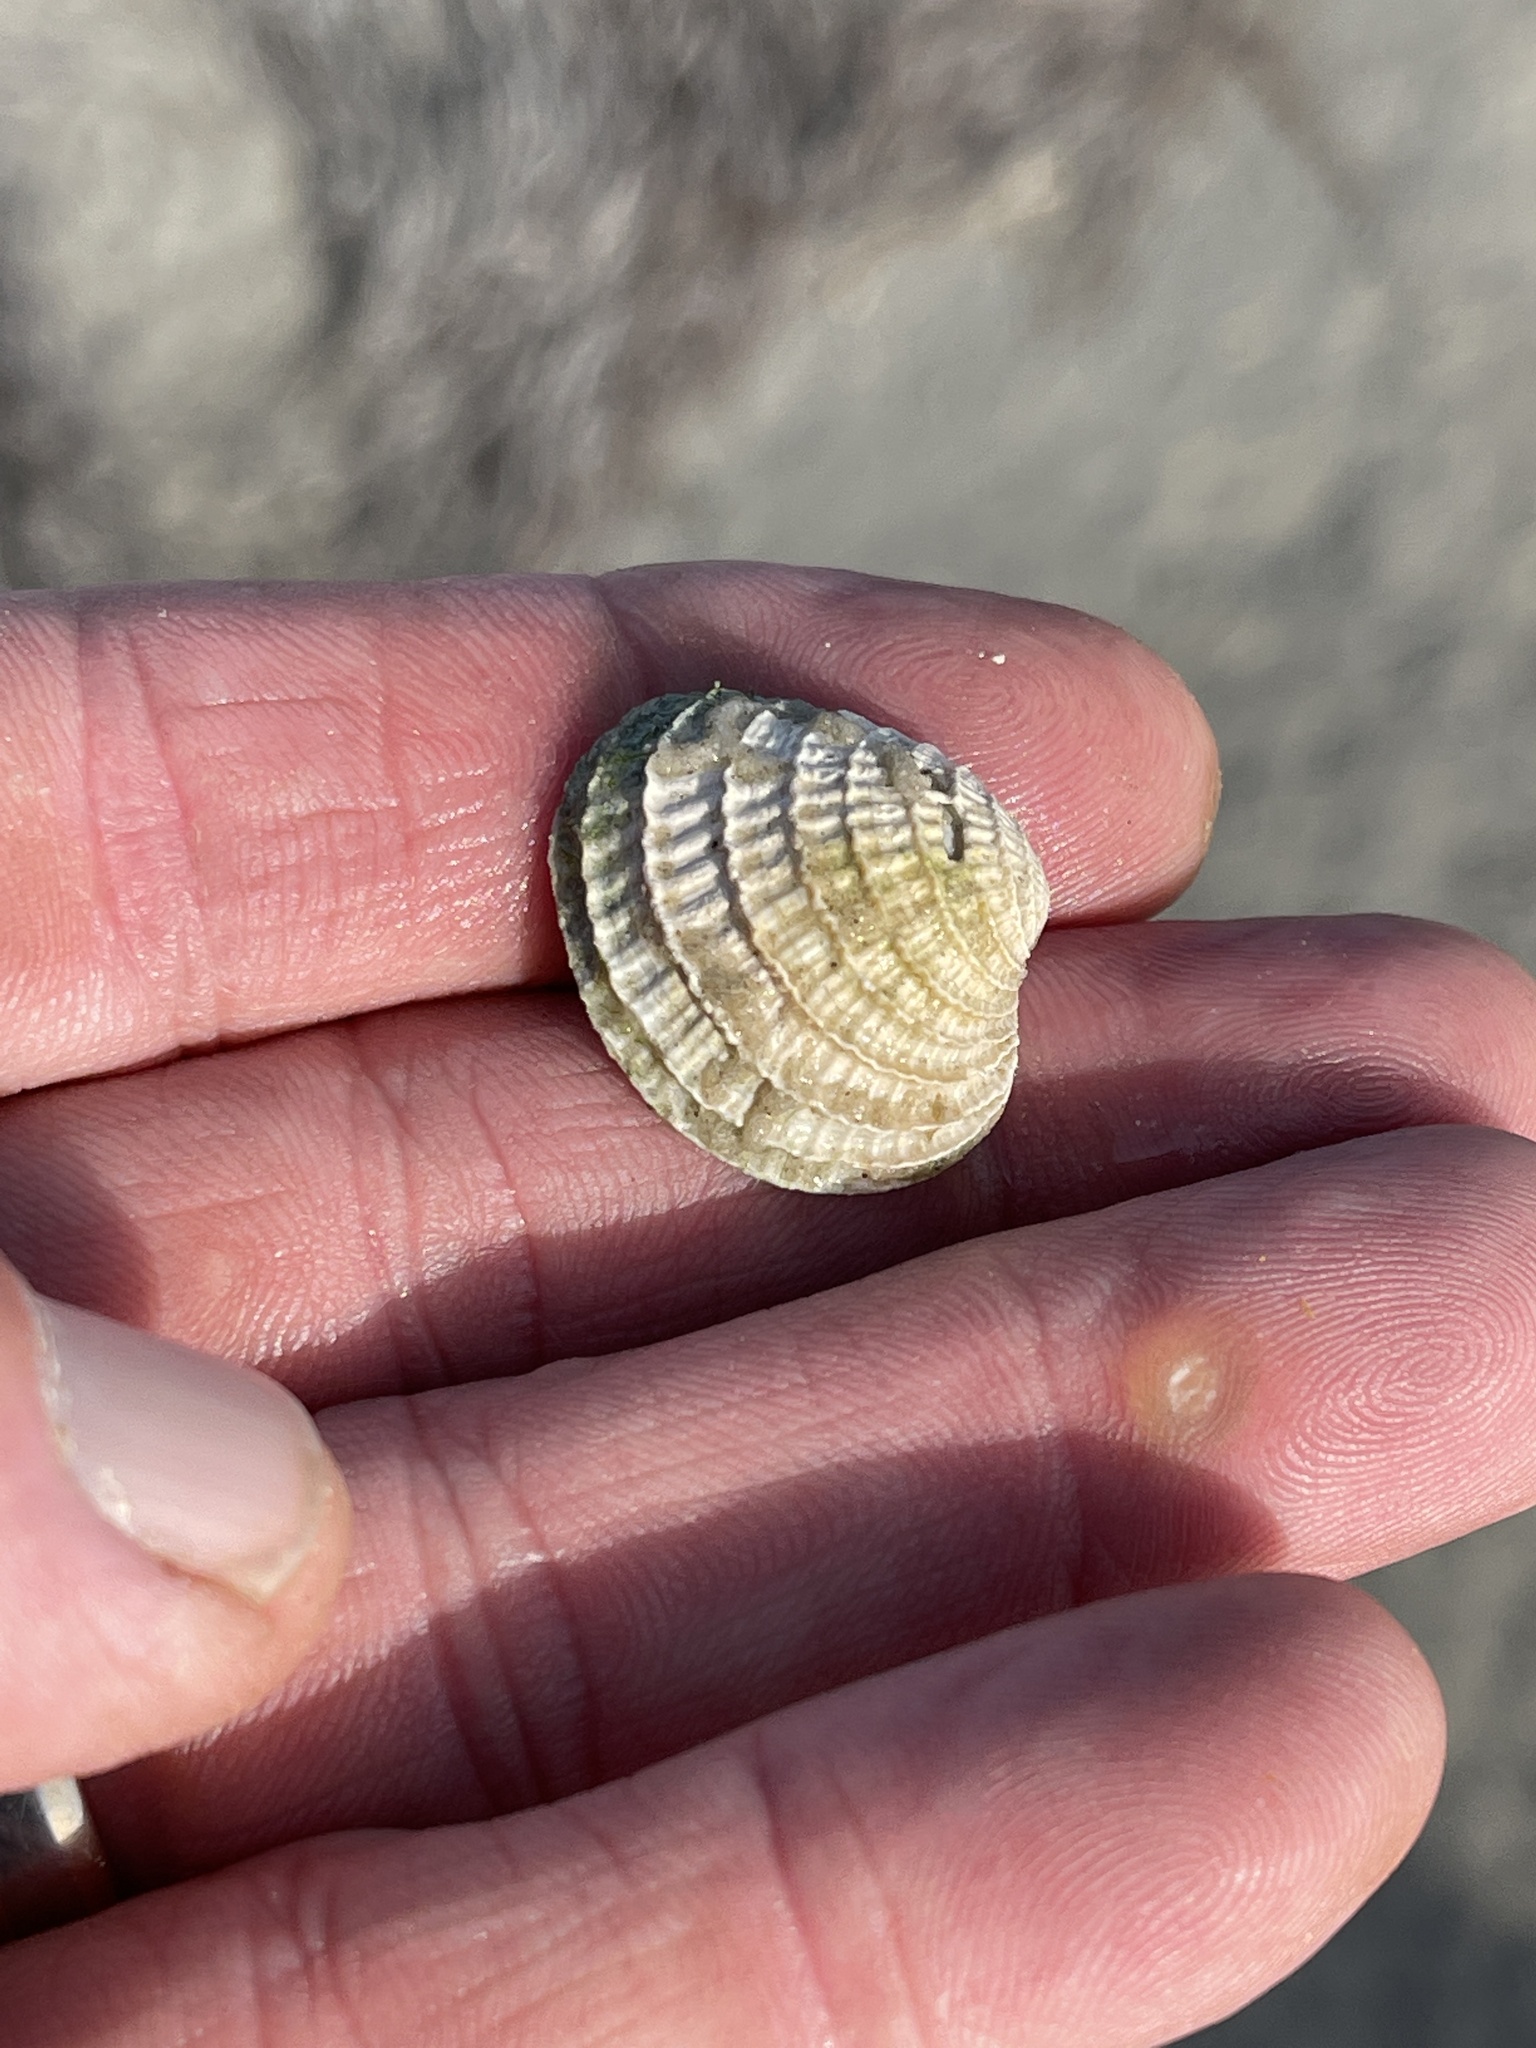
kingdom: Animalia
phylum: Mollusca
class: Bivalvia
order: Venerida
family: Veneridae
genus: Chione
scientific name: Chione elevata
